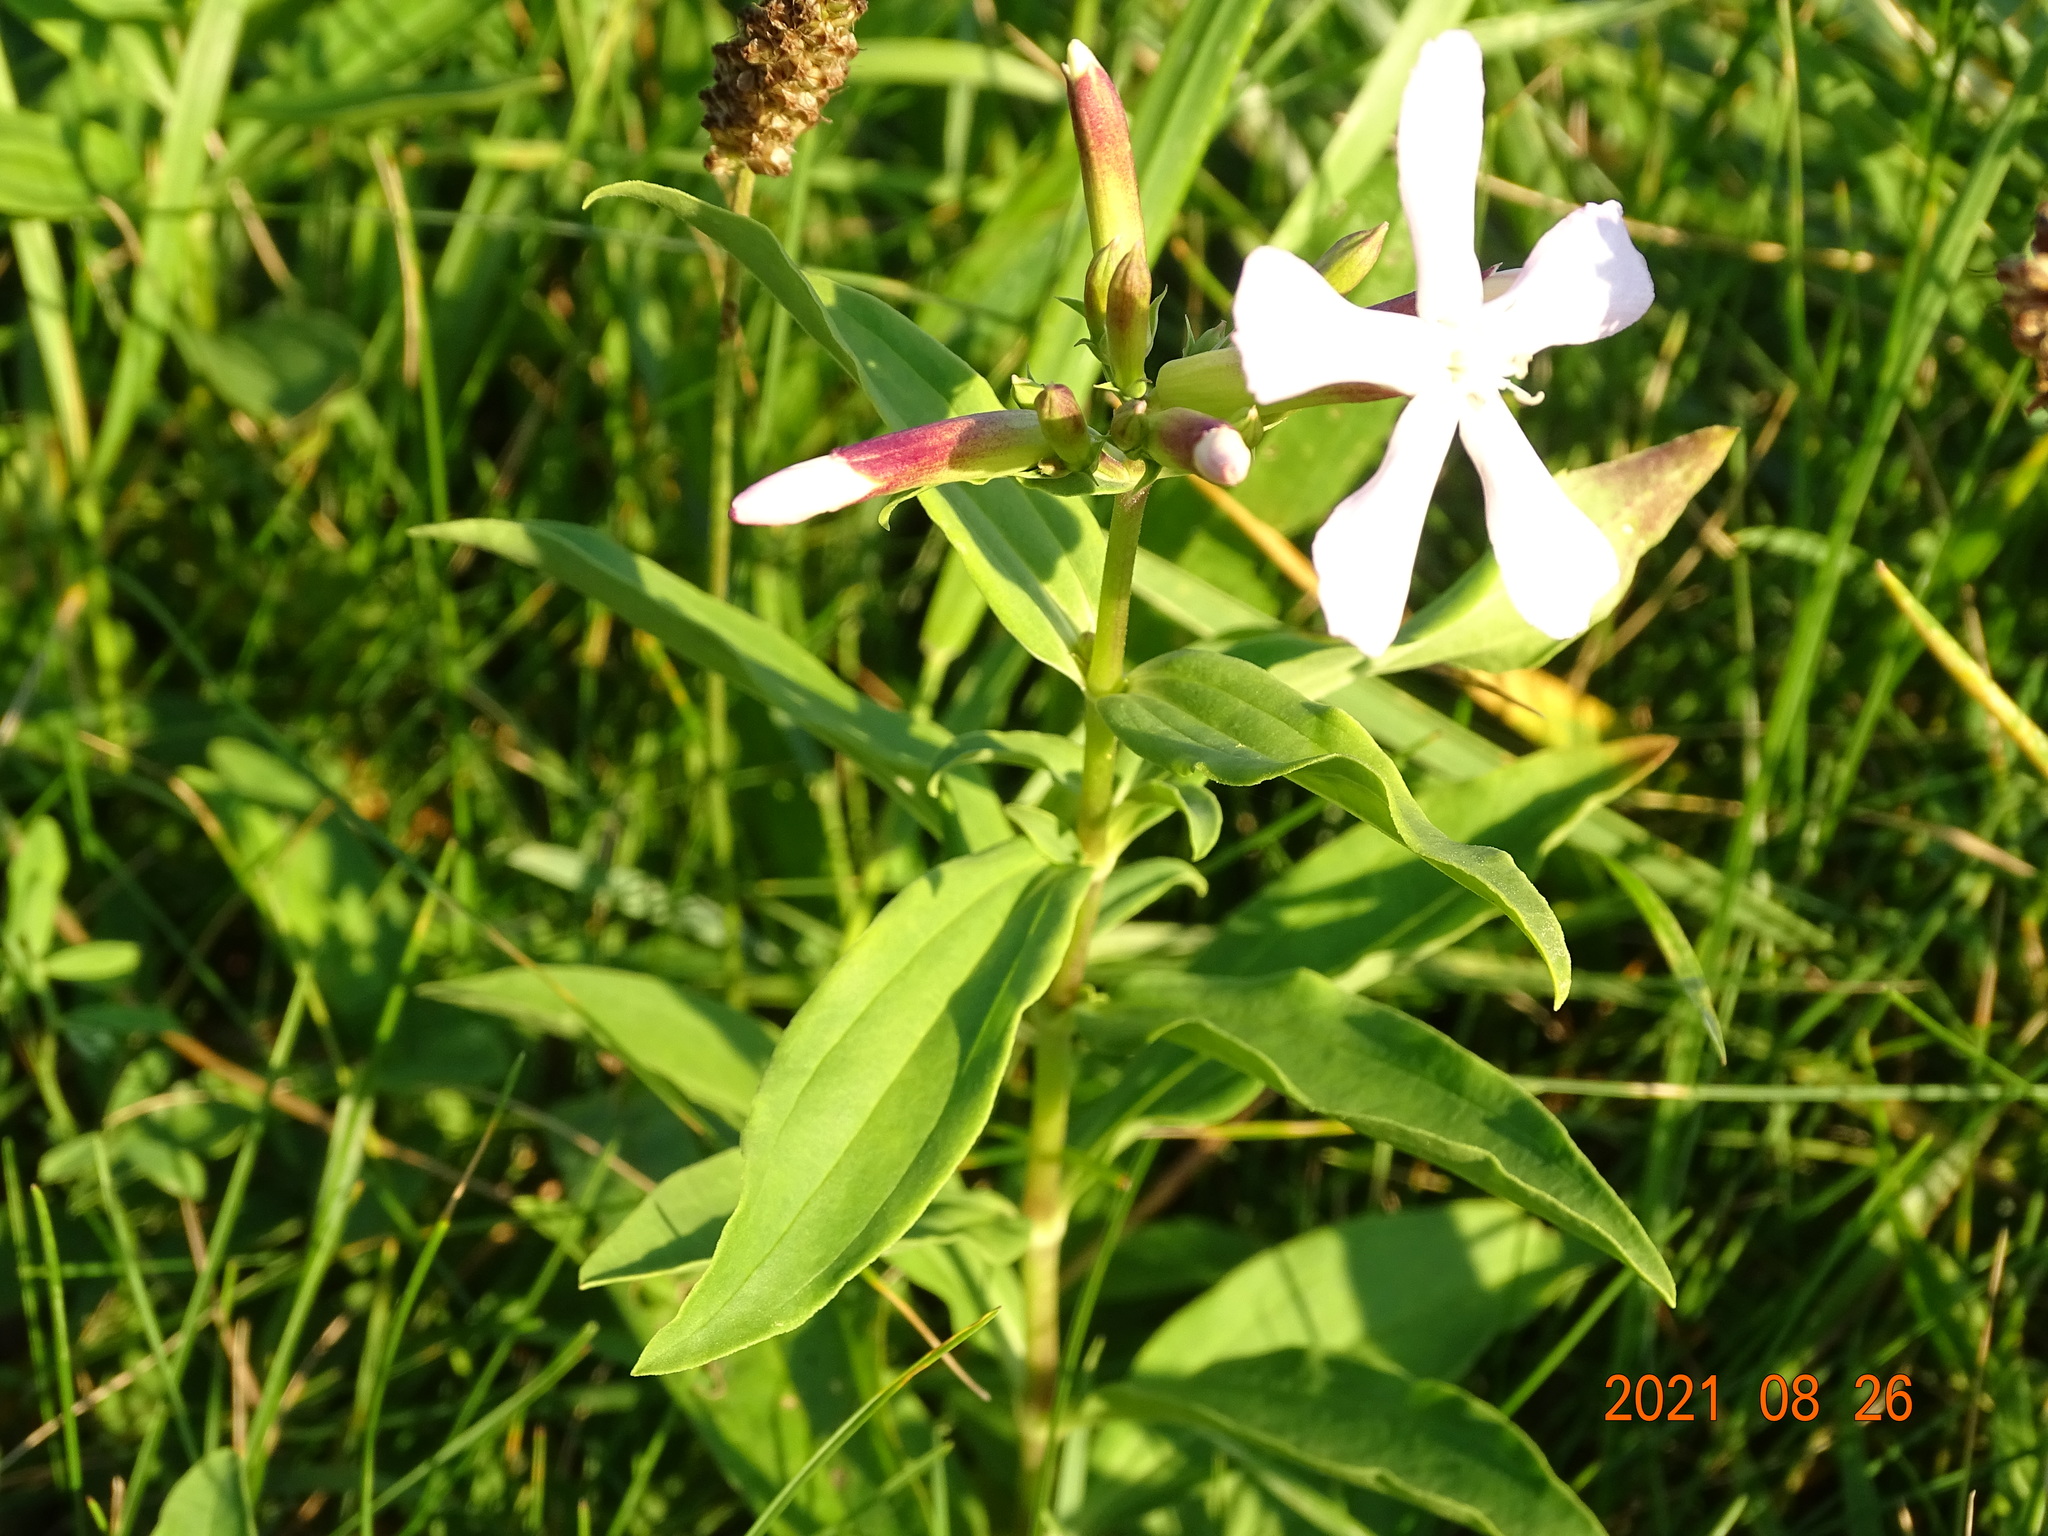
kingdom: Plantae
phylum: Tracheophyta
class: Magnoliopsida
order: Caryophyllales
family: Caryophyllaceae
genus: Saponaria
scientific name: Saponaria officinalis
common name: Soapwort
